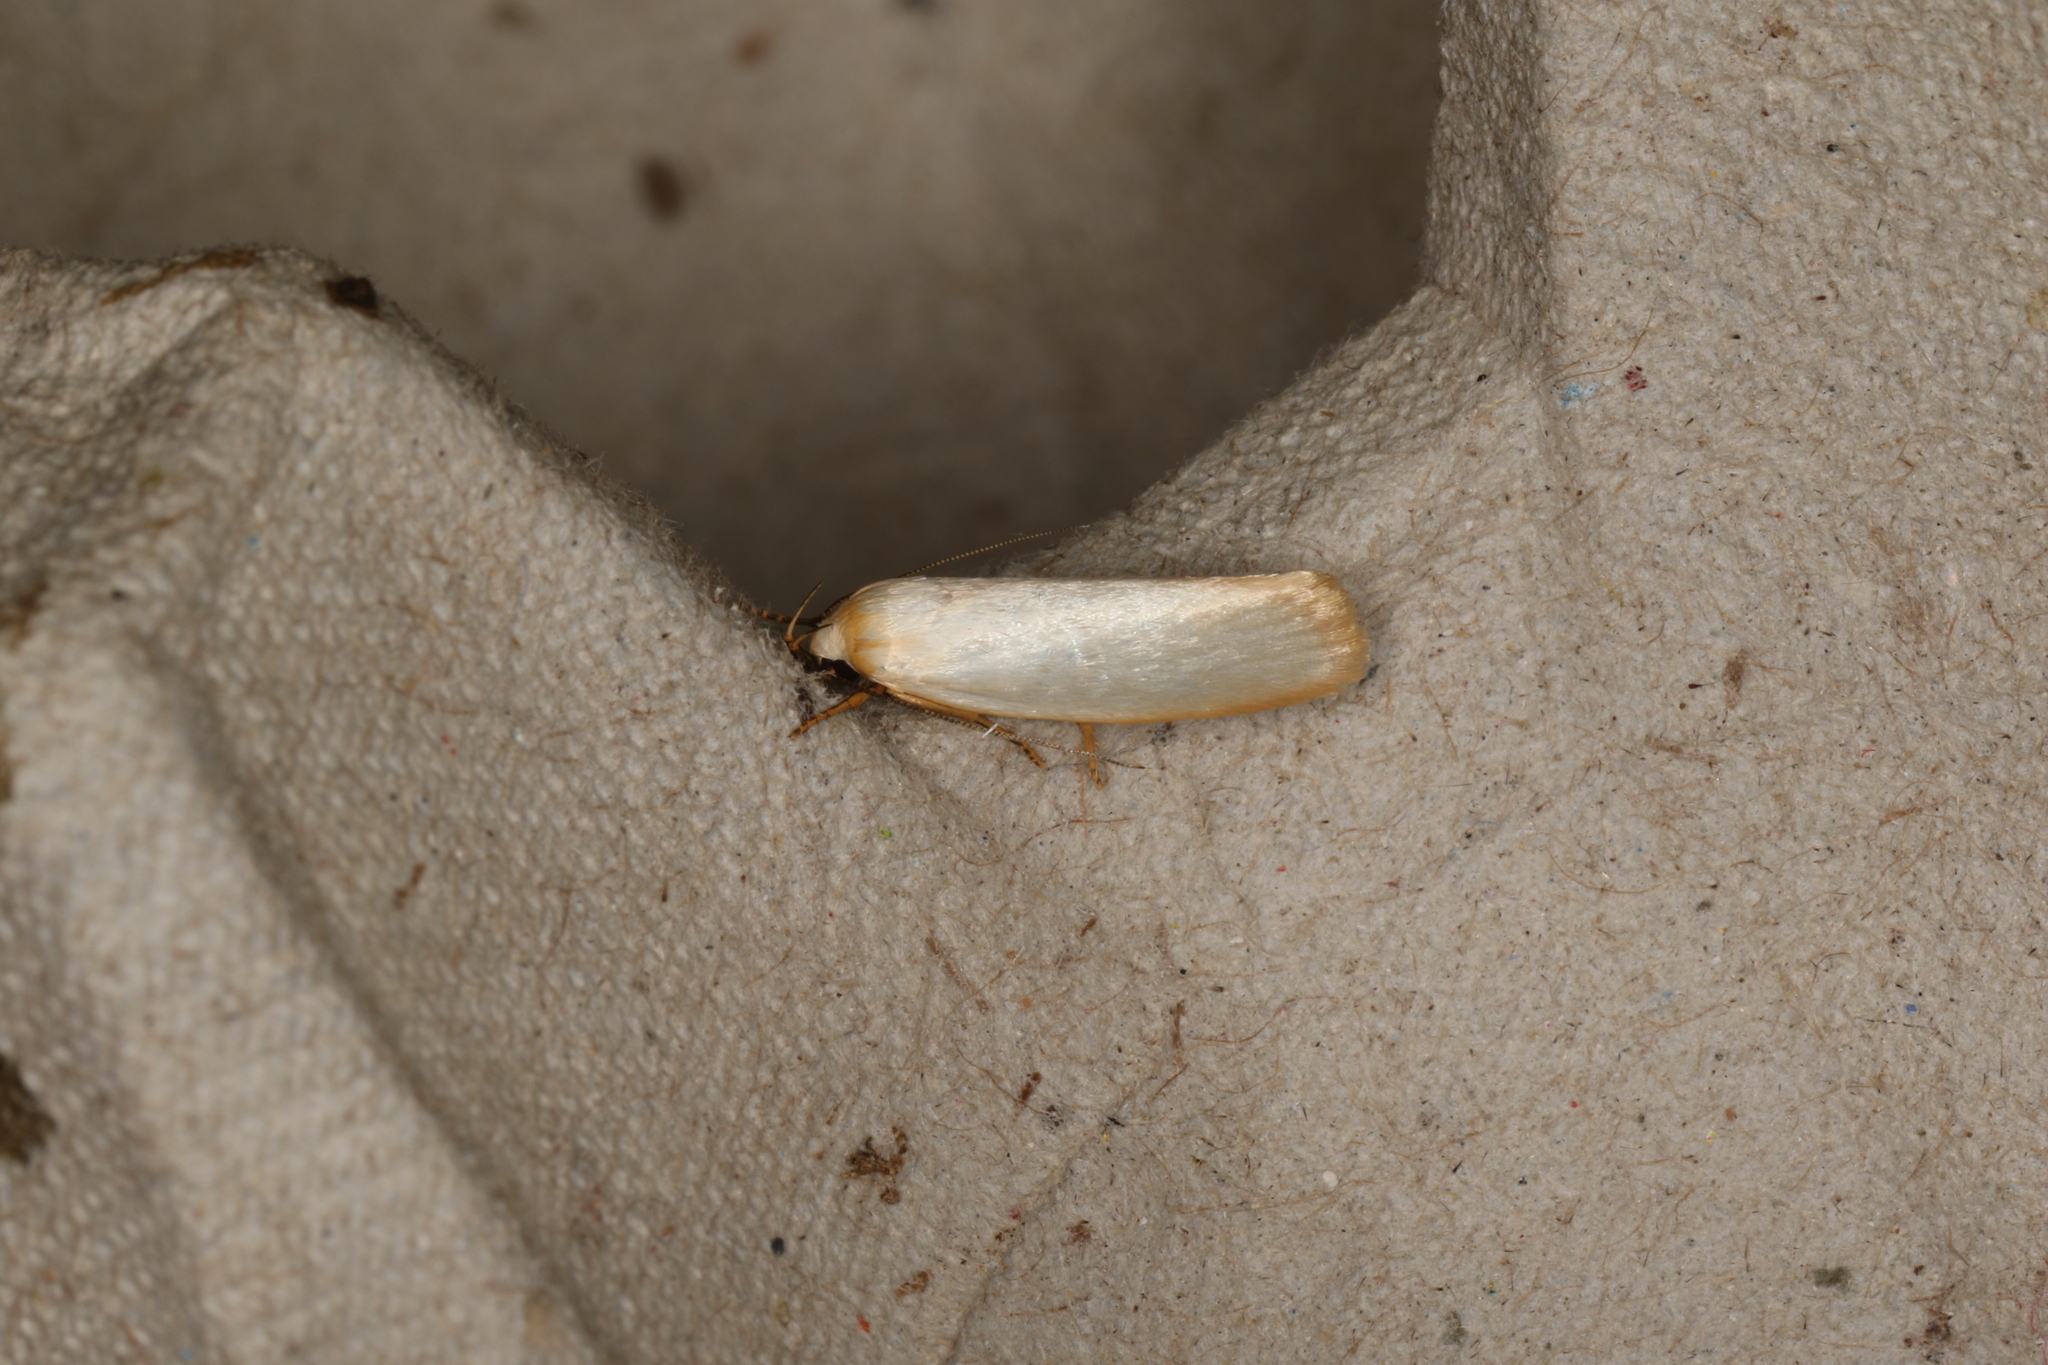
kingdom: Animalia
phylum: Arthropoda
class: Insecta
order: Lepidoptera
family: Xyloryctidae
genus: Xylorycta
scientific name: Xylorycta assimilis
